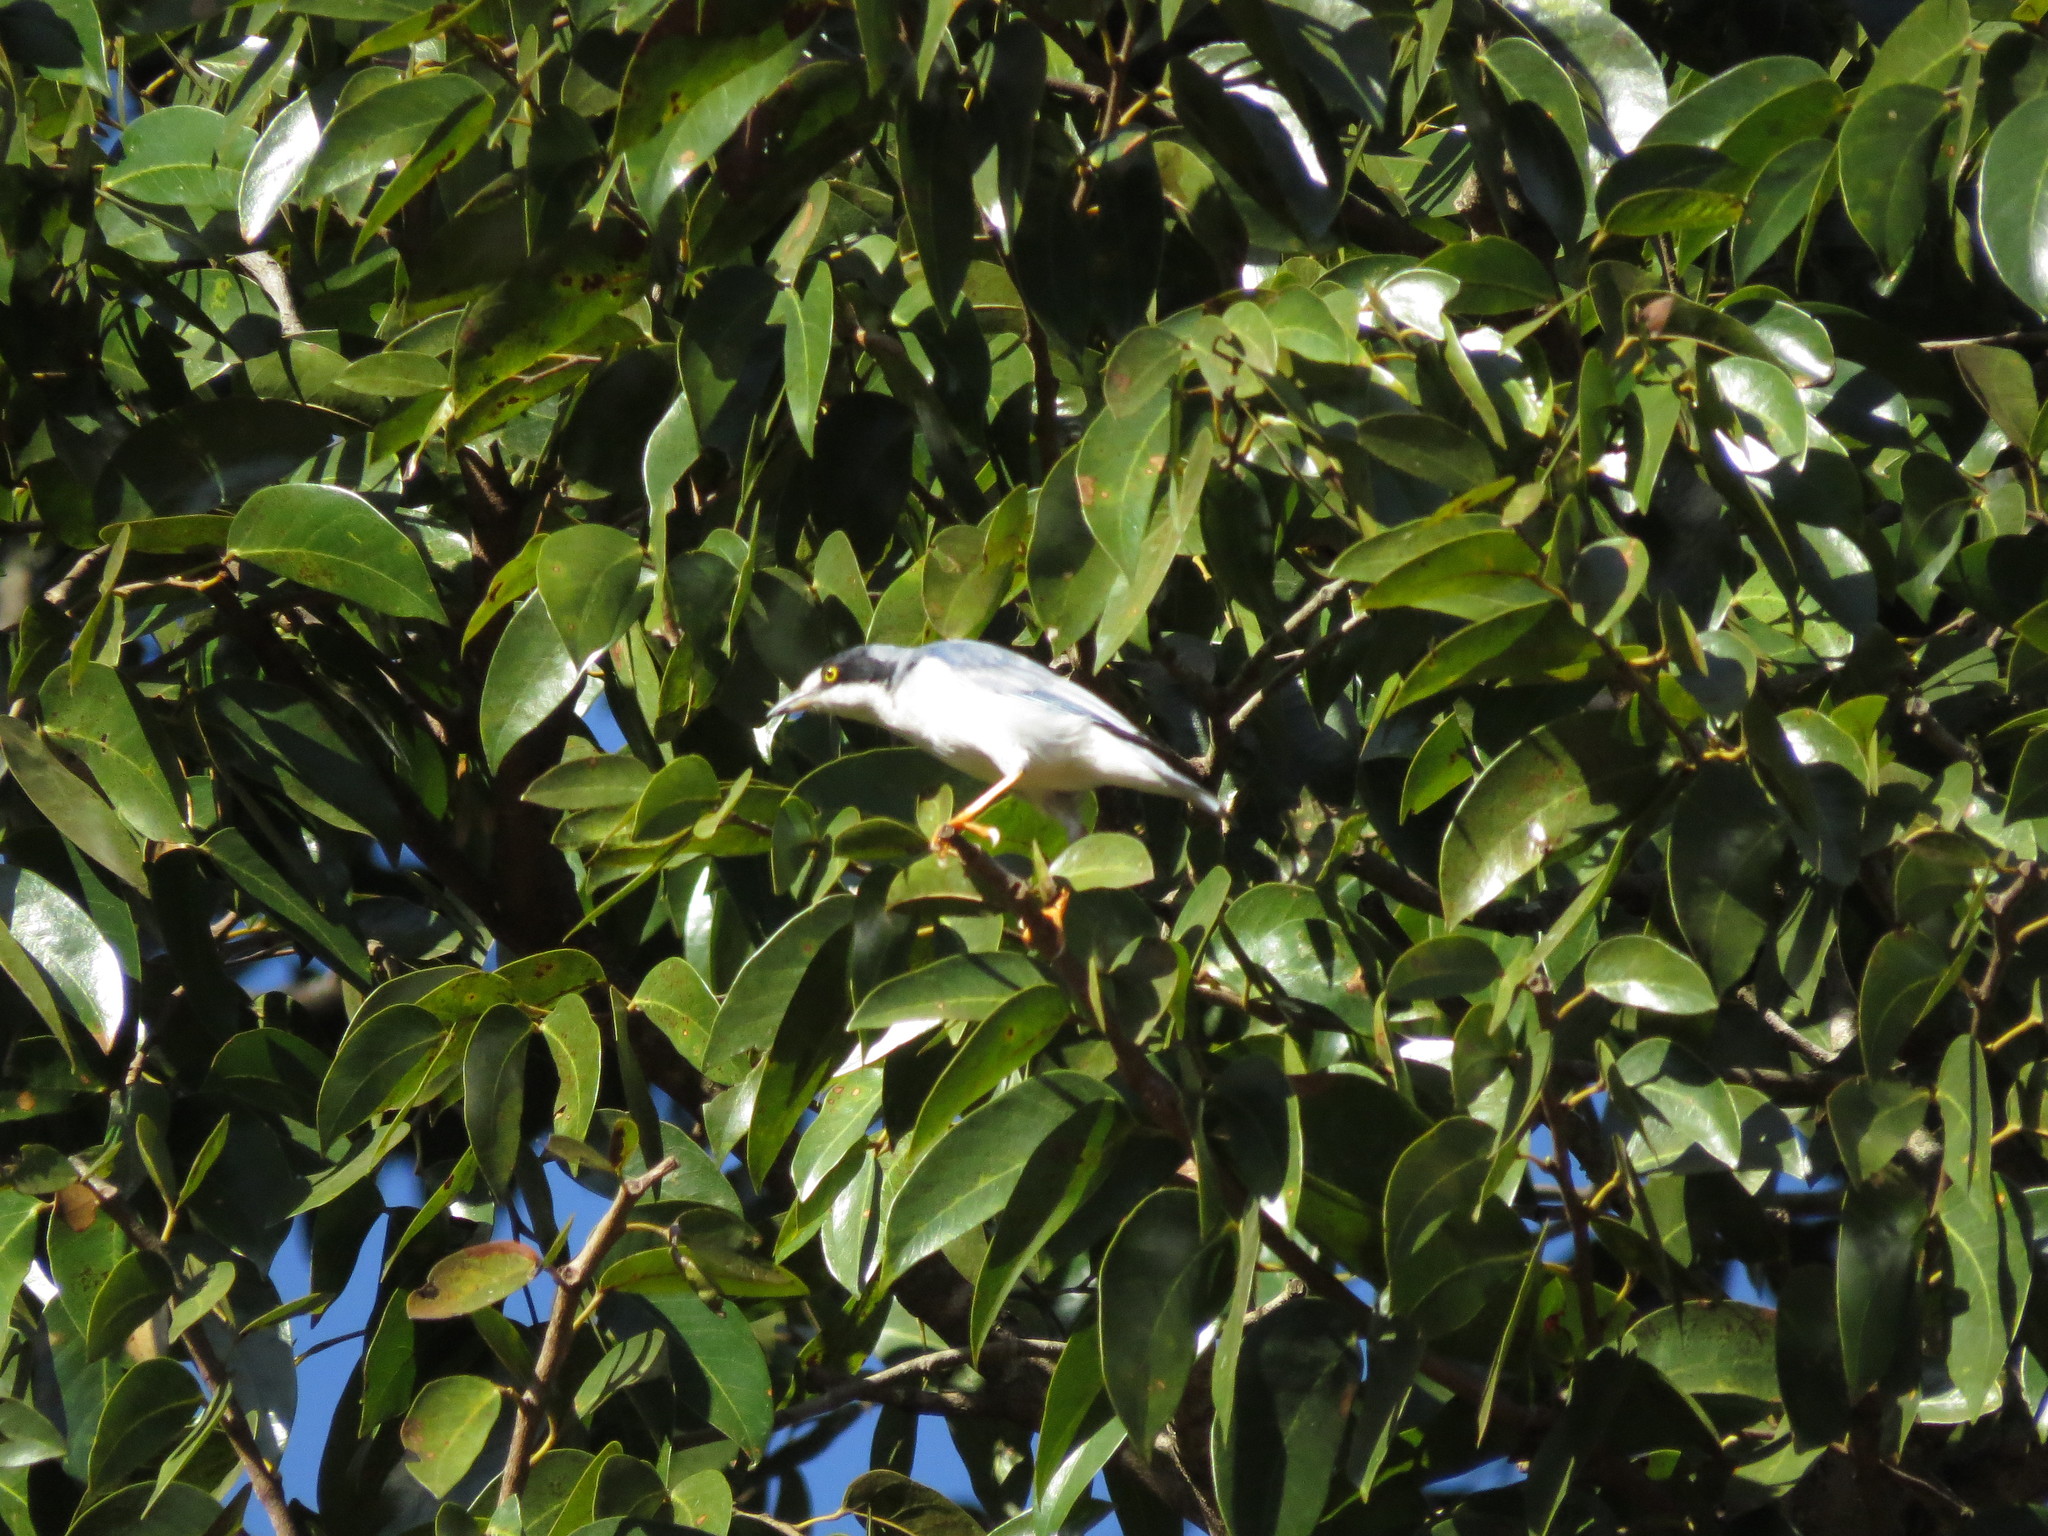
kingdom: Animalia
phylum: Chordata
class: Aves
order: Passeriformes
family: Thraupidae
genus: Nemosia
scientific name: Nemosia pileata
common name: Hooded tanager
